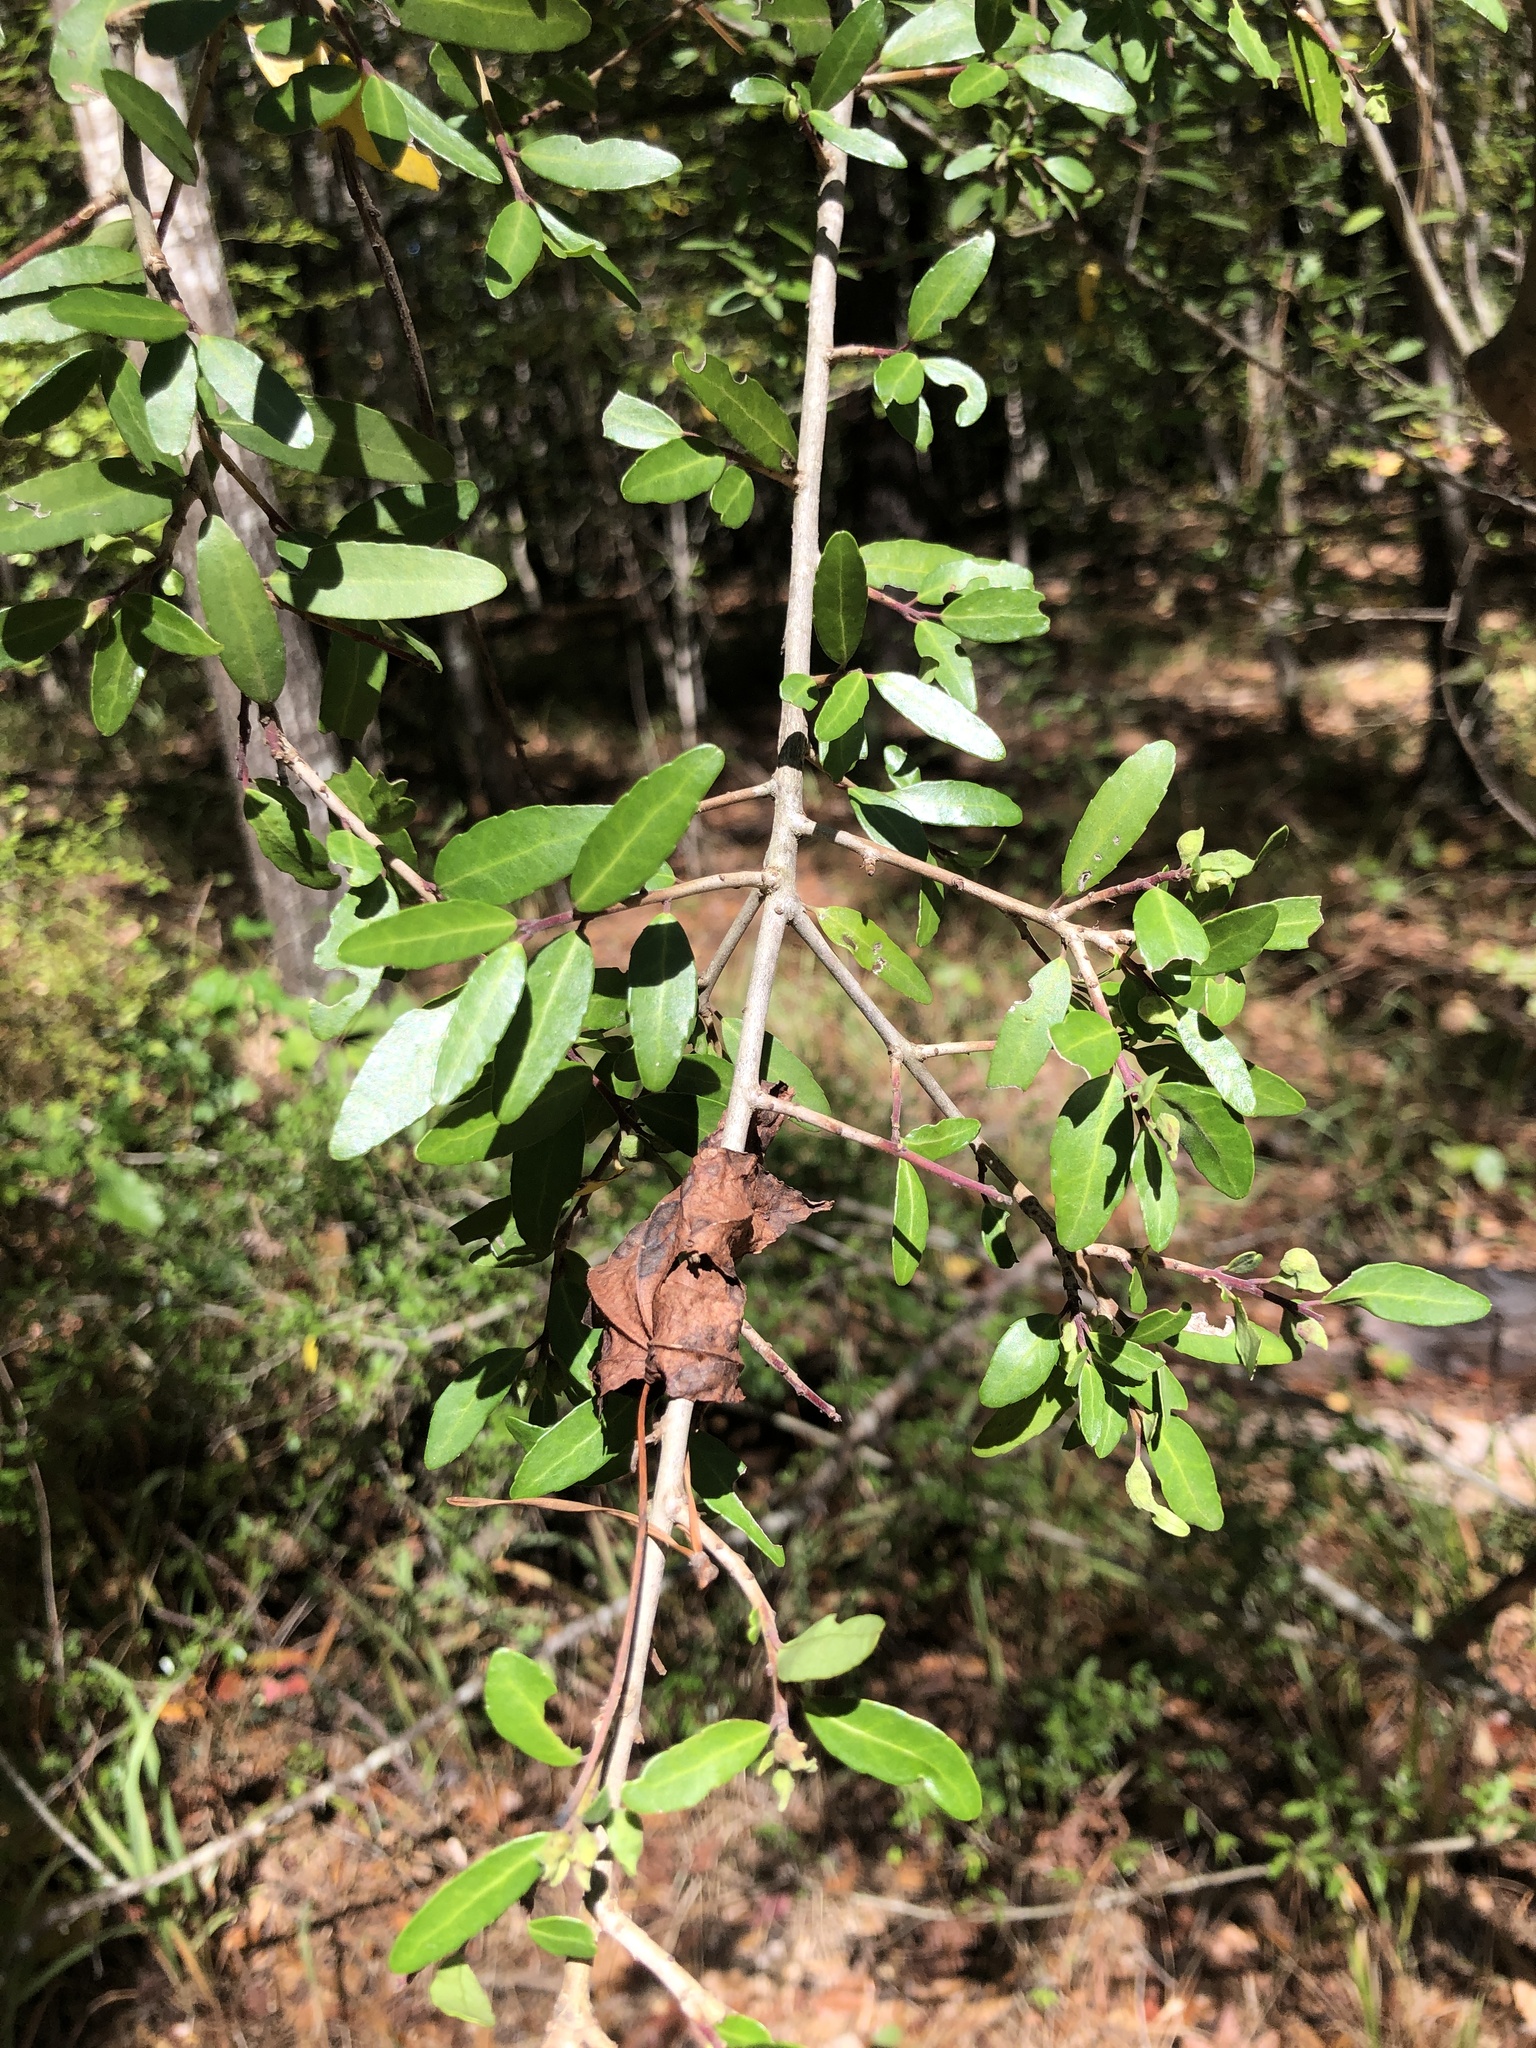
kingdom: Plantae
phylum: Tracheophyta
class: Magnoliopsida
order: Aquifoliales
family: Aquifoliaceae
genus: Ilex
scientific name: Ilex vomitoria
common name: Yaupon holly
